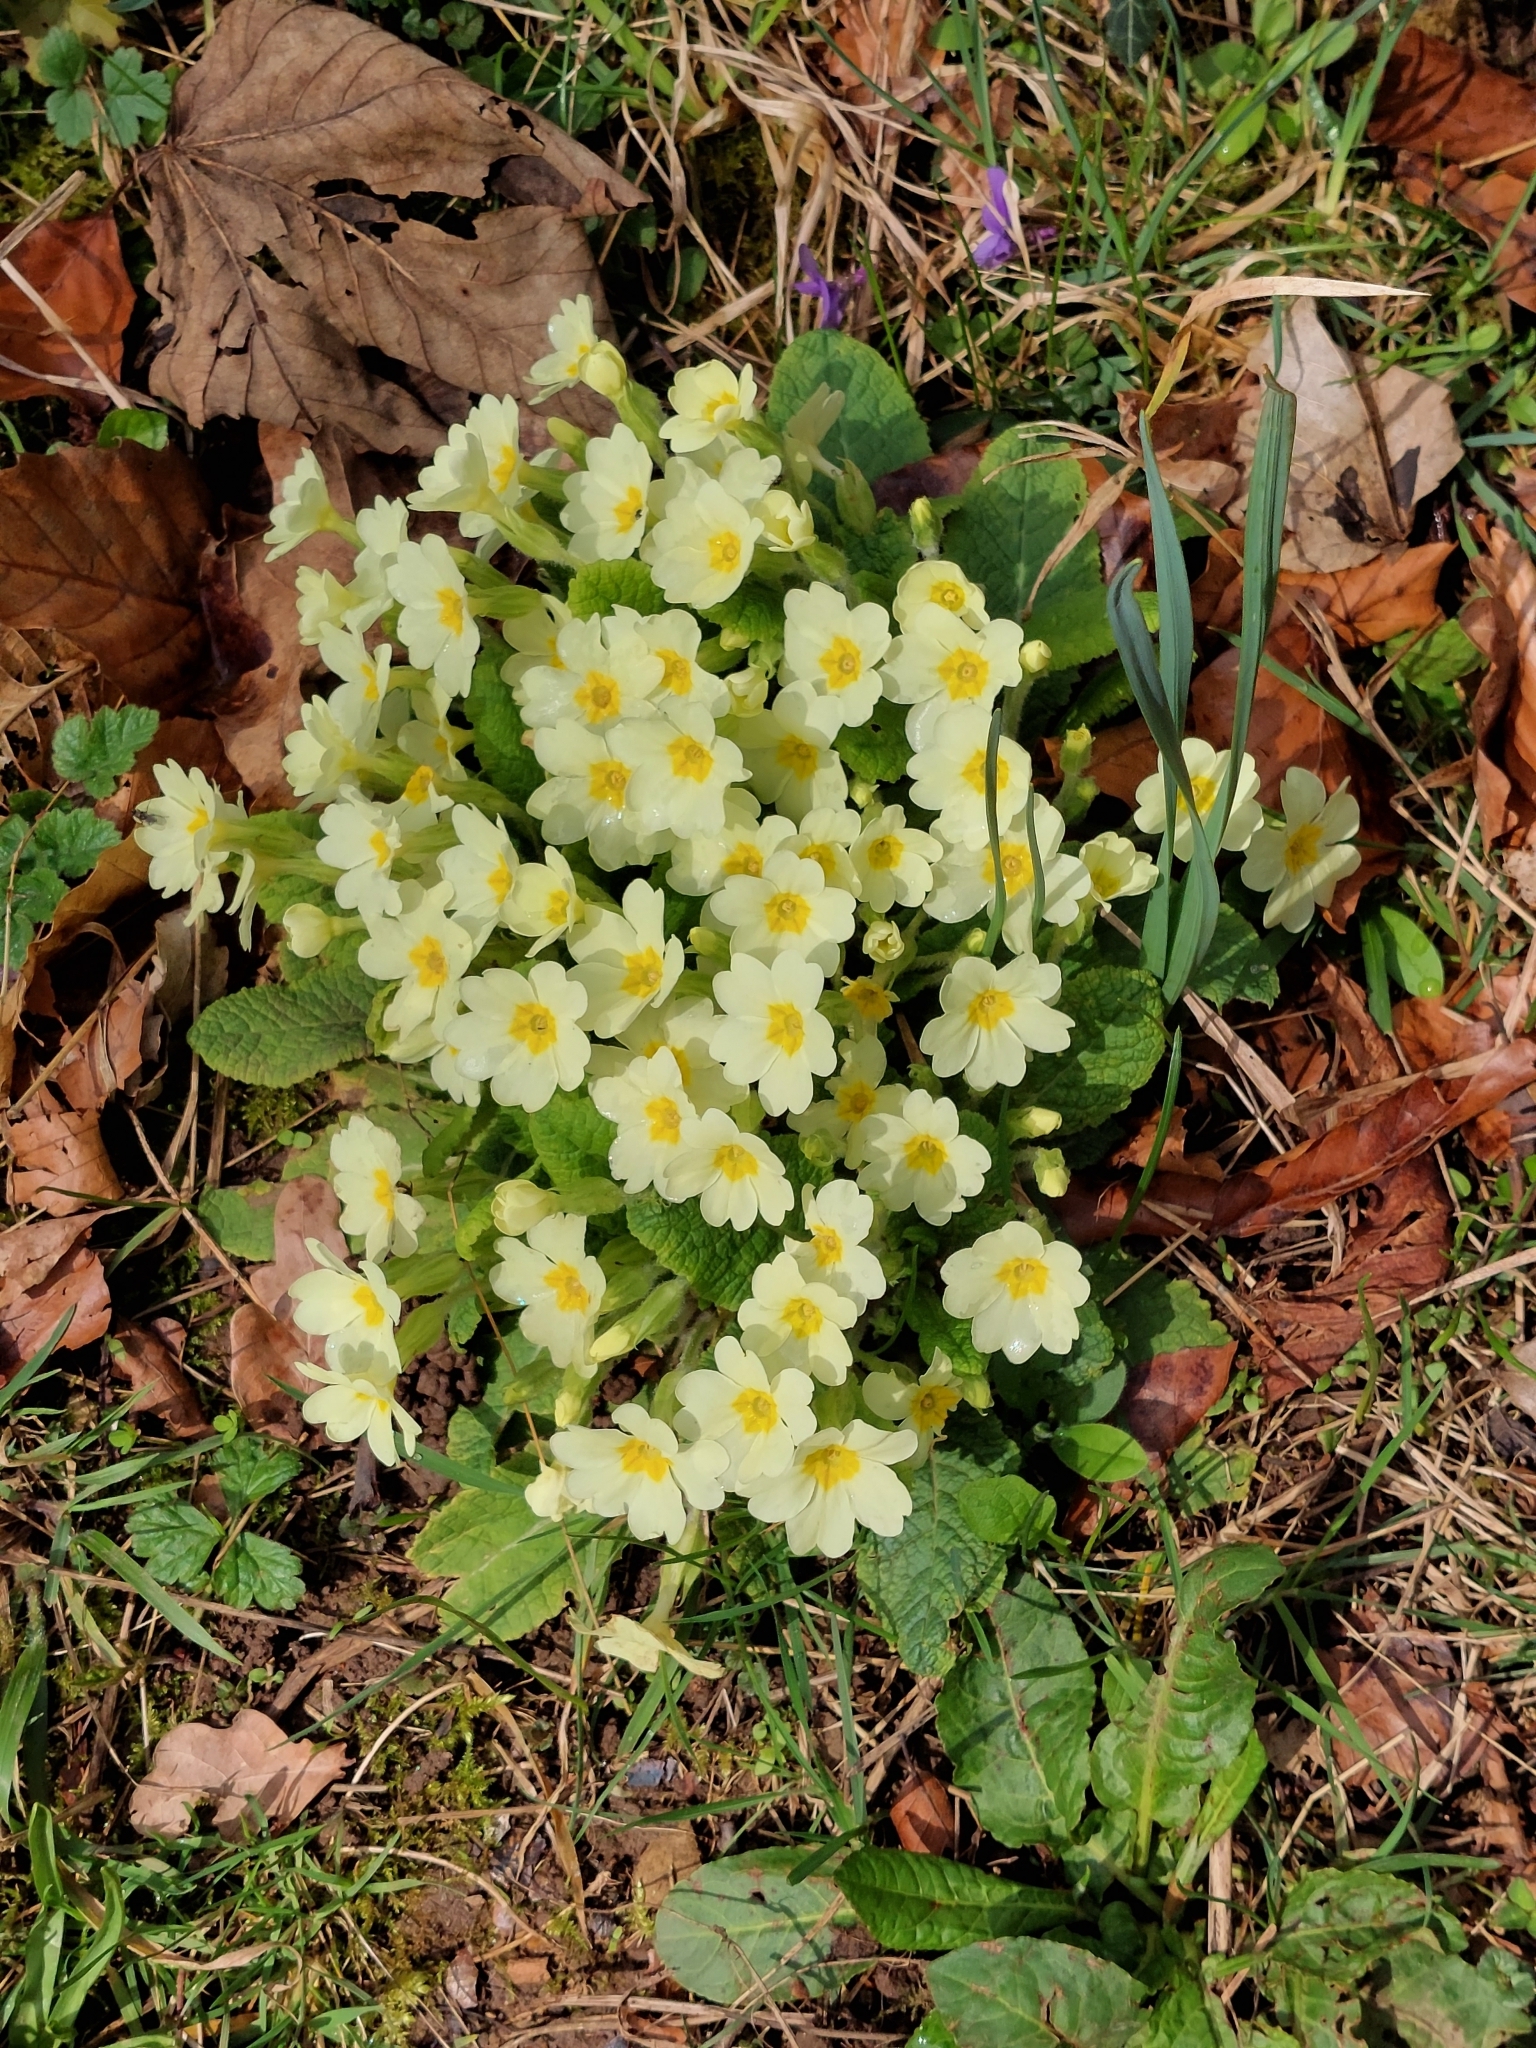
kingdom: Plantae
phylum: Tracheophyta
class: Magnoliopsida
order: Ericales
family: Primulaceae
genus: Primula
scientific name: Primula vulgaris
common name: Primrose
